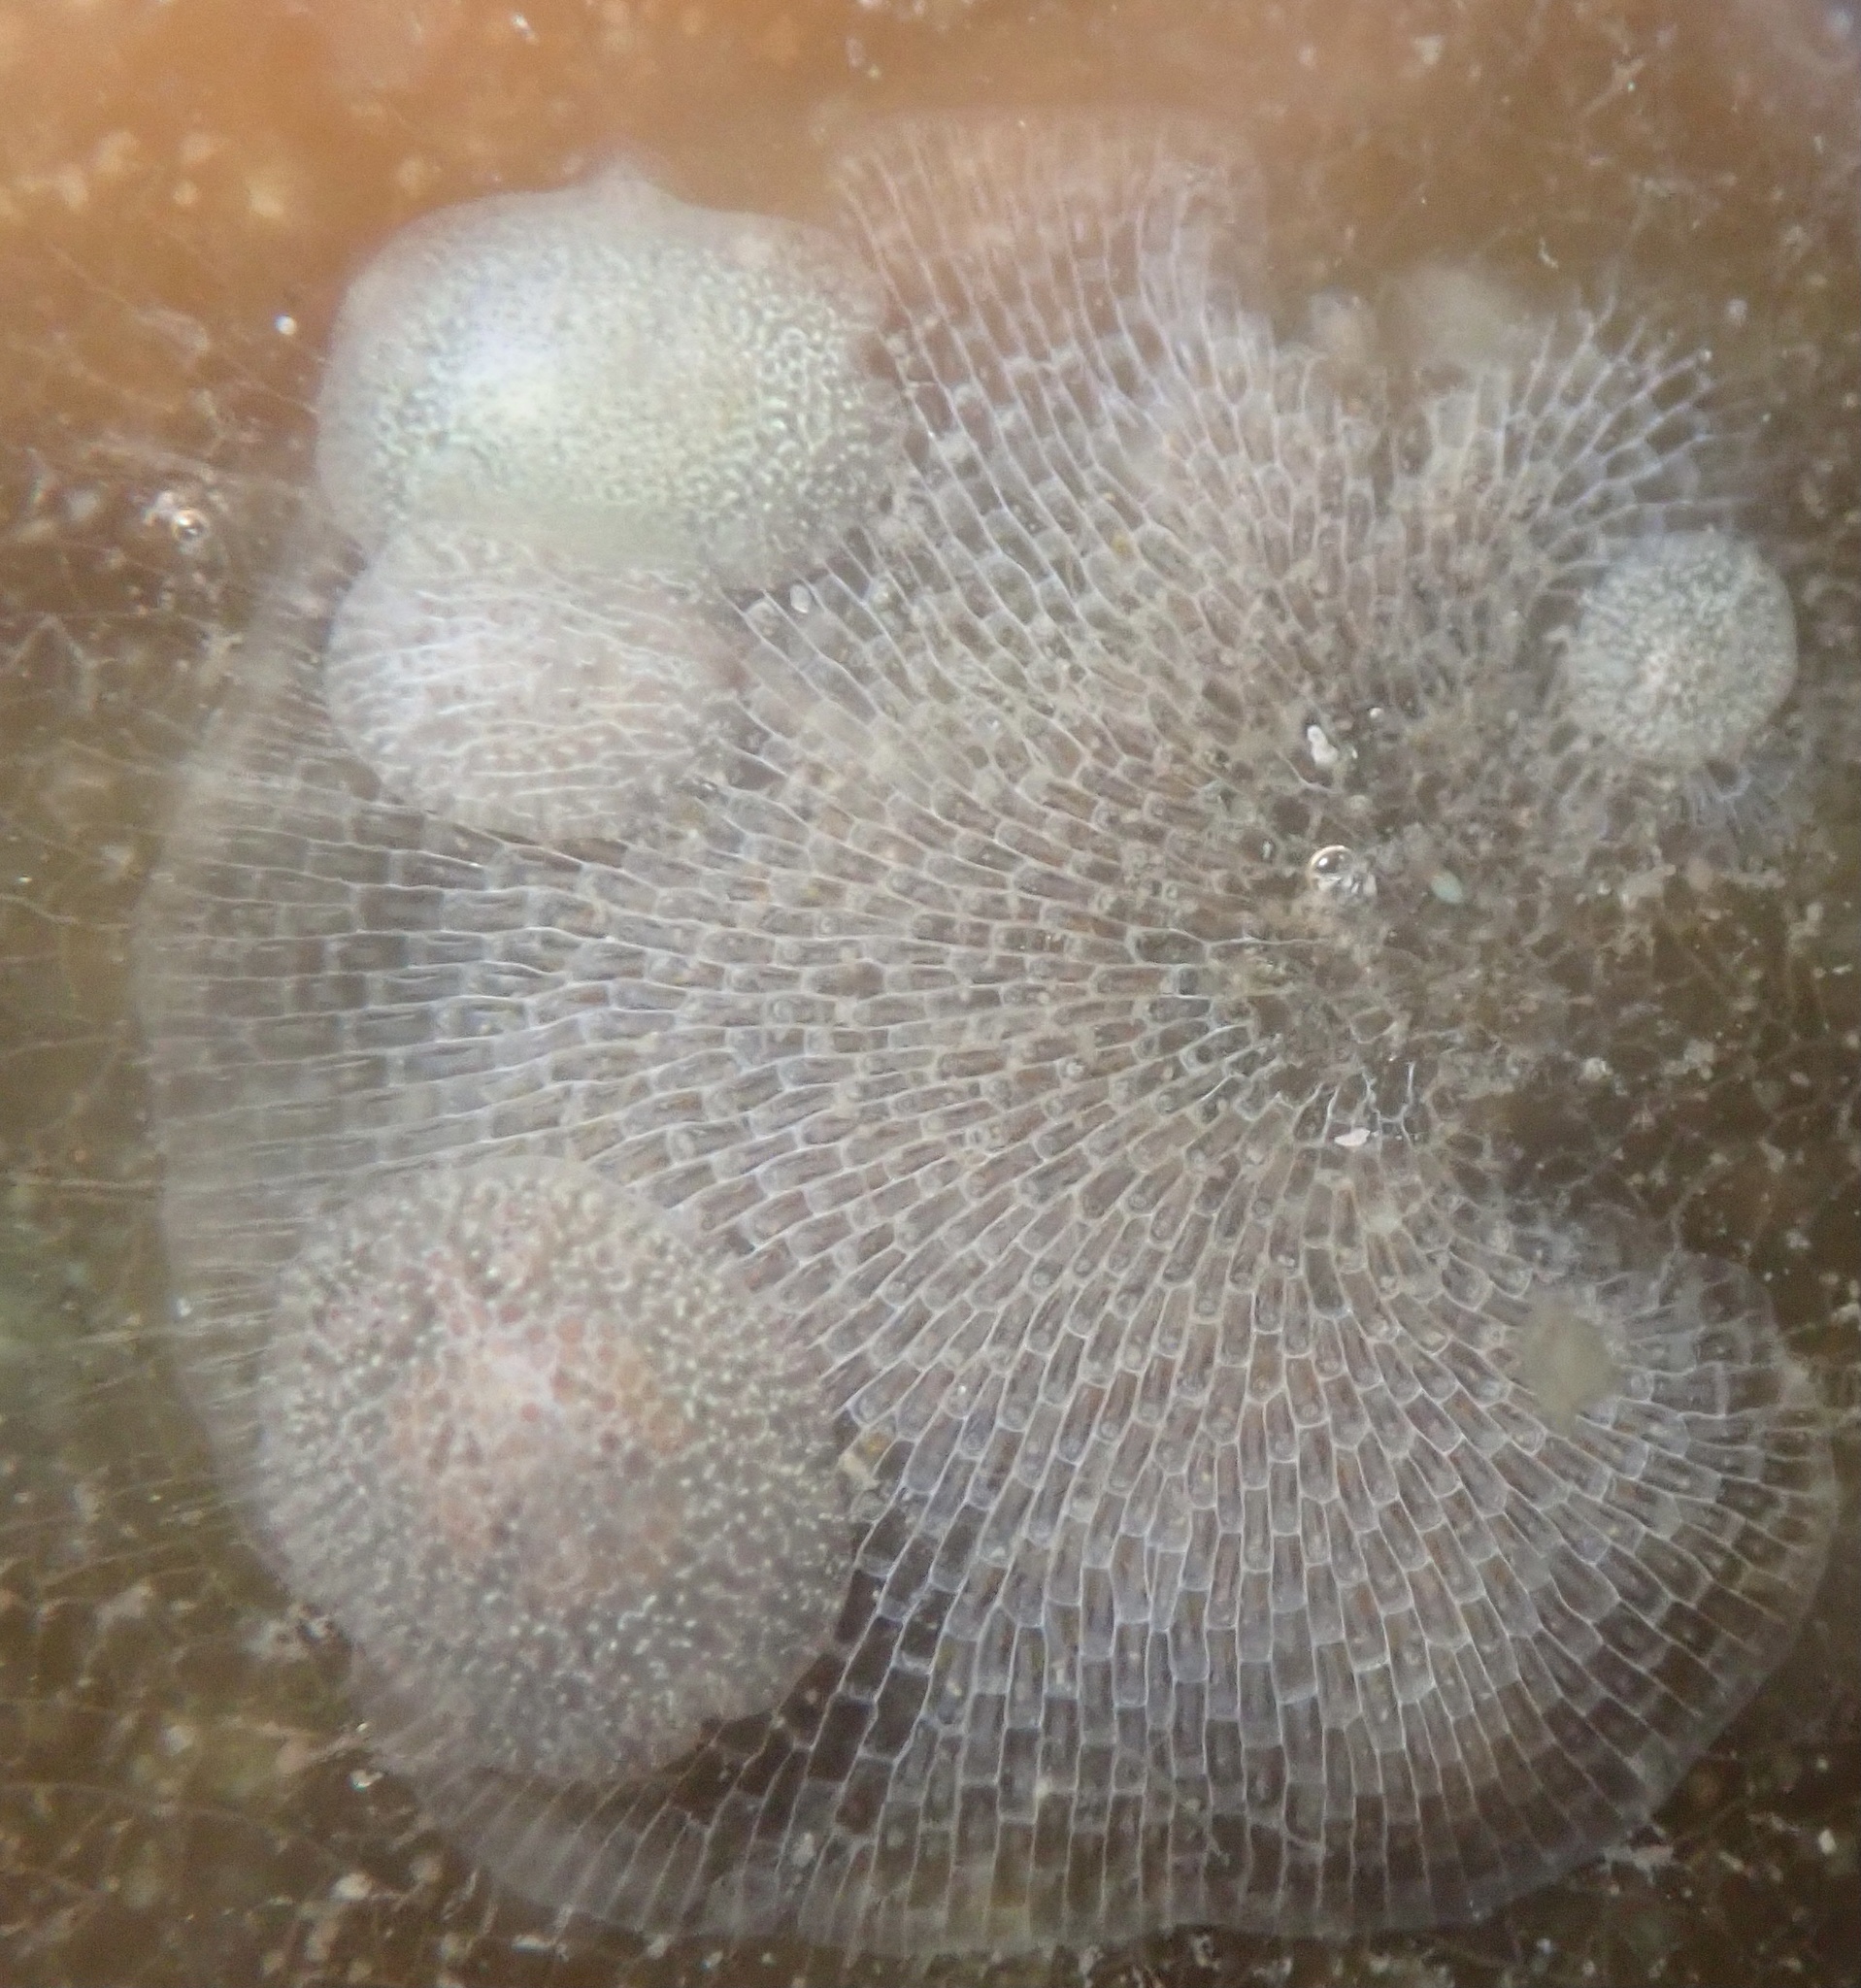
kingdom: Animalia
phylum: Mollusca
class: Gastropoda
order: Nudibranchia
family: Corambidae
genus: Corambe
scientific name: Corambe pacifica
